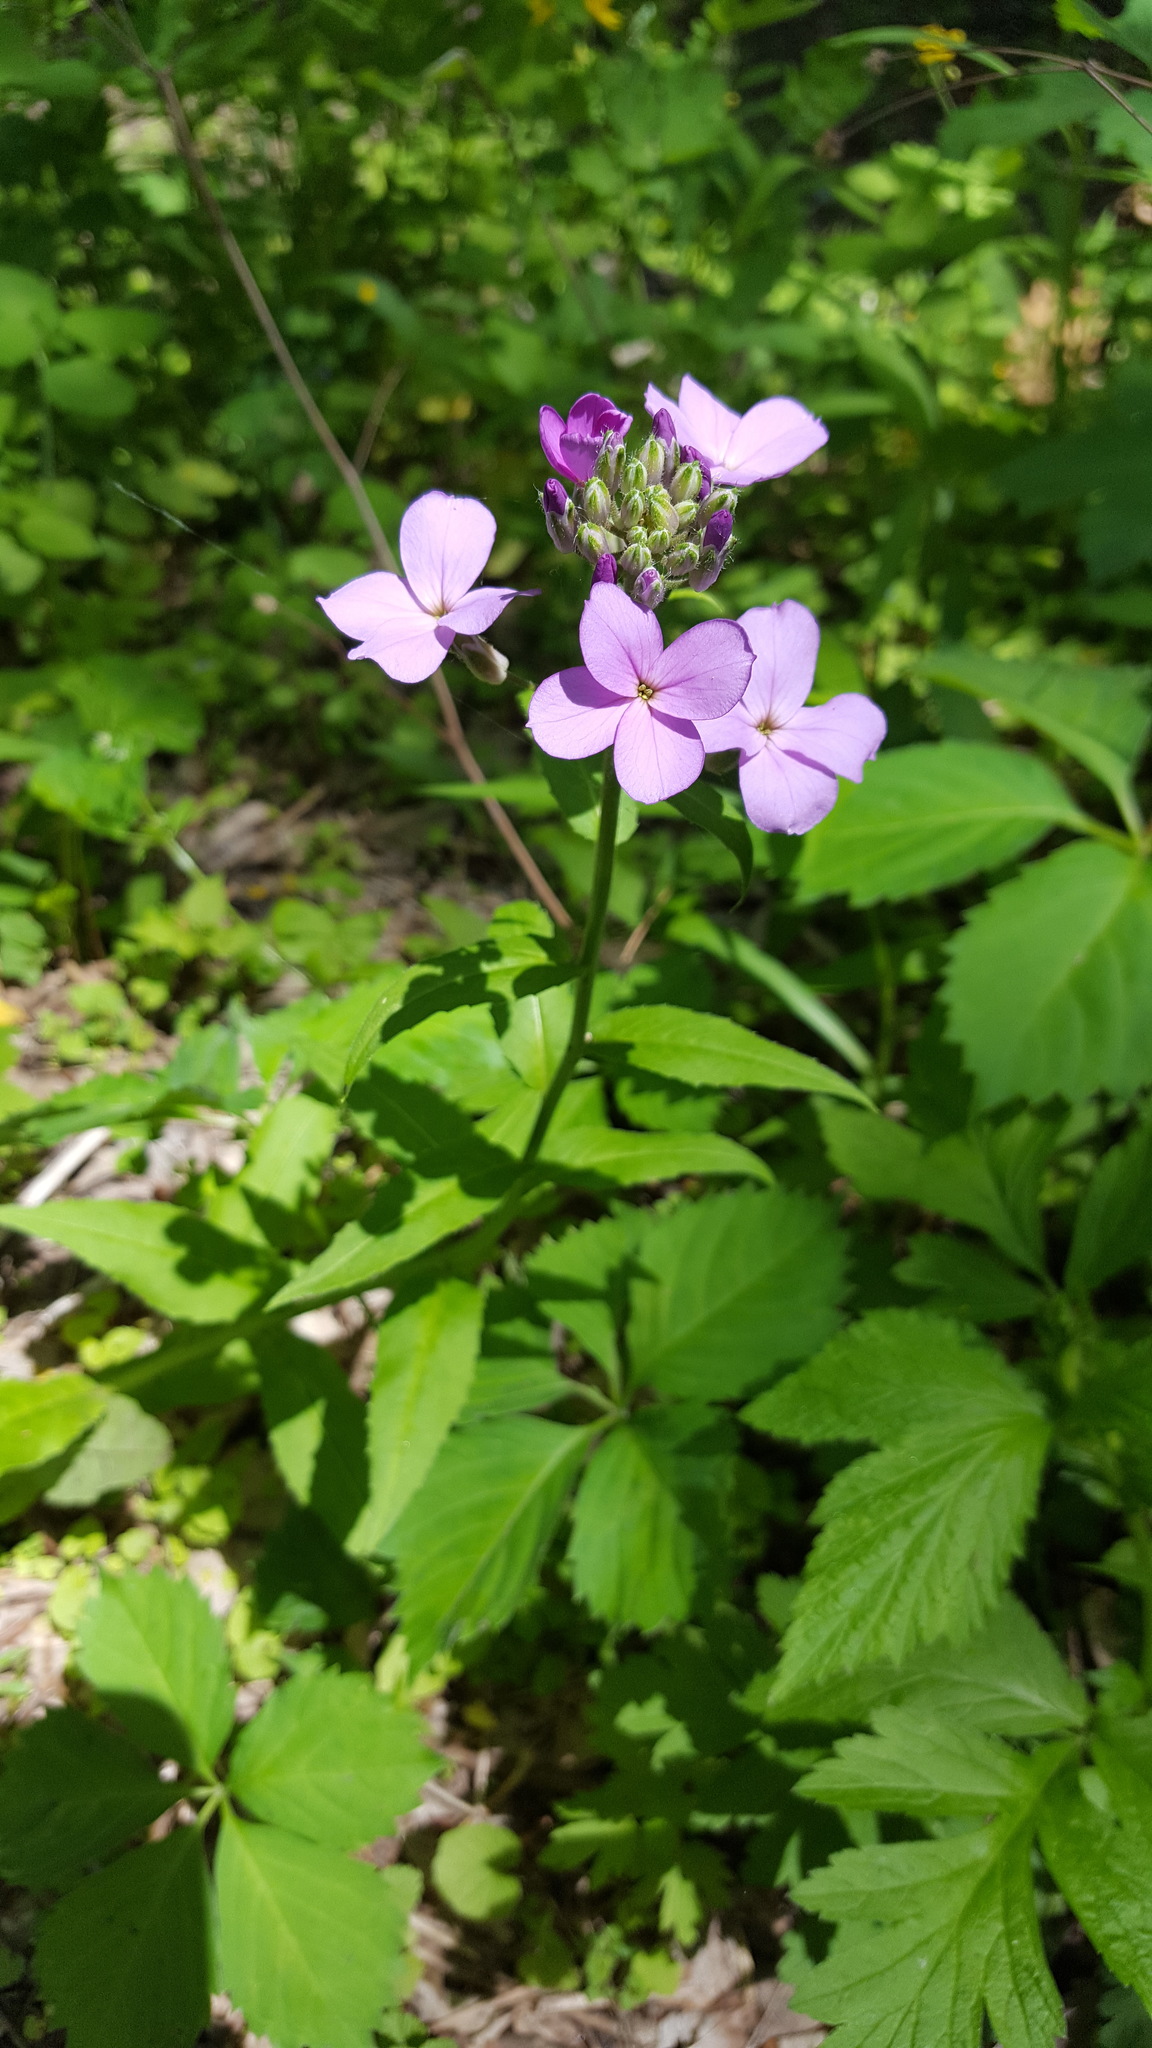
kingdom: Plantae
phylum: Tracheophyta
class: Magnoliopsida
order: Brassicales
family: Brassicaceae
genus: Hesperis
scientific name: Hesperis matronalis
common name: Dame's-violet
